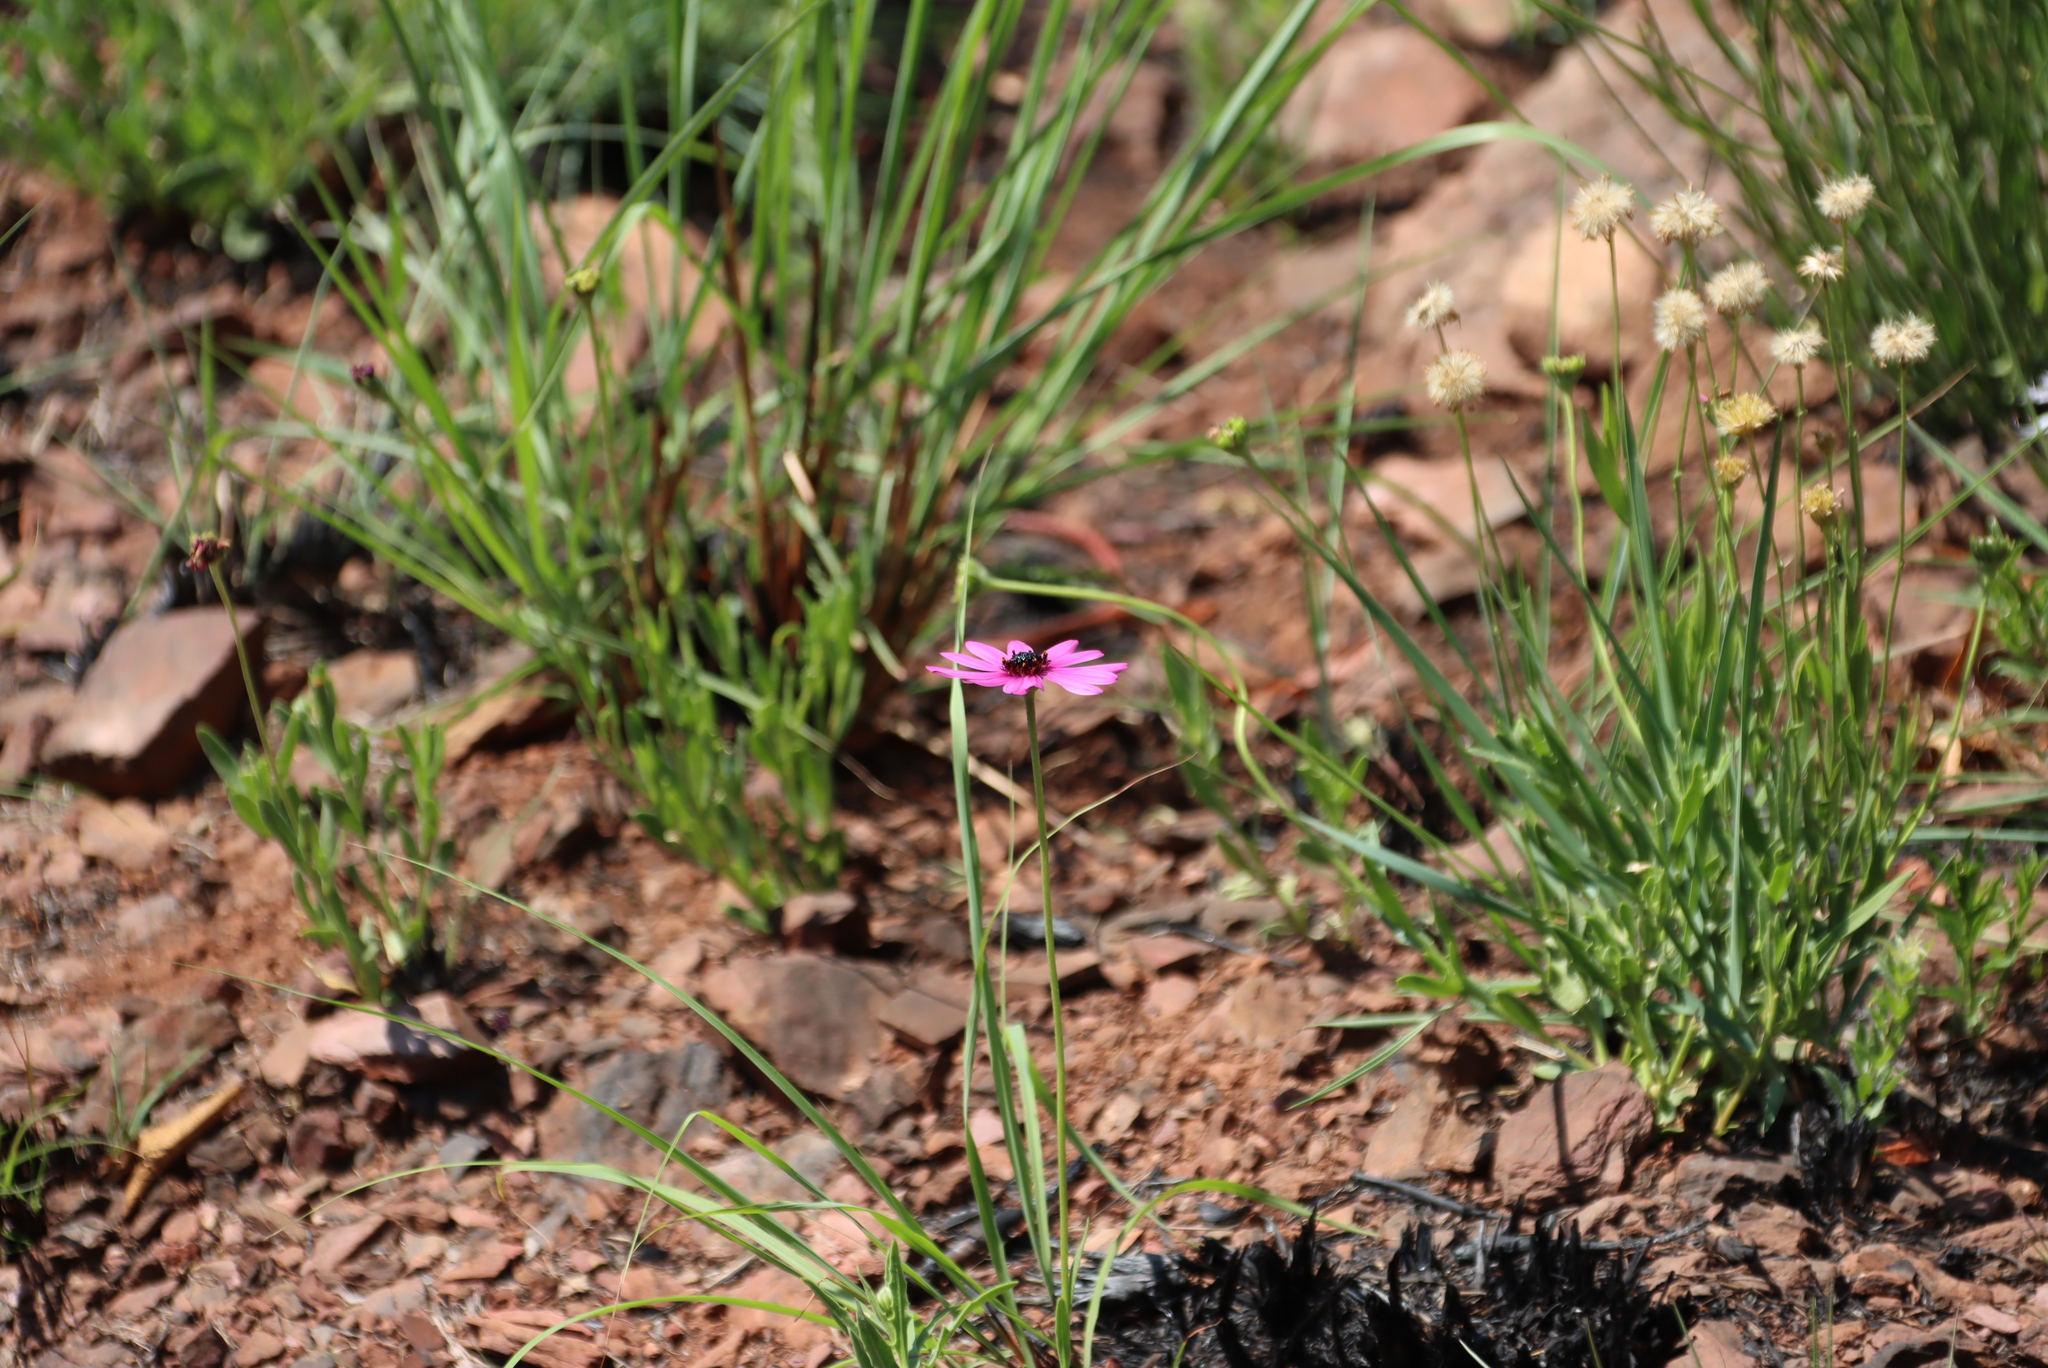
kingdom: Plantae
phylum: Tracheophyta
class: Magnoliopsida
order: Asterales
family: Asteraceae
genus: Dimorphotheca
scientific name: Dimorphotheca jucunda
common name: Osteospermum
